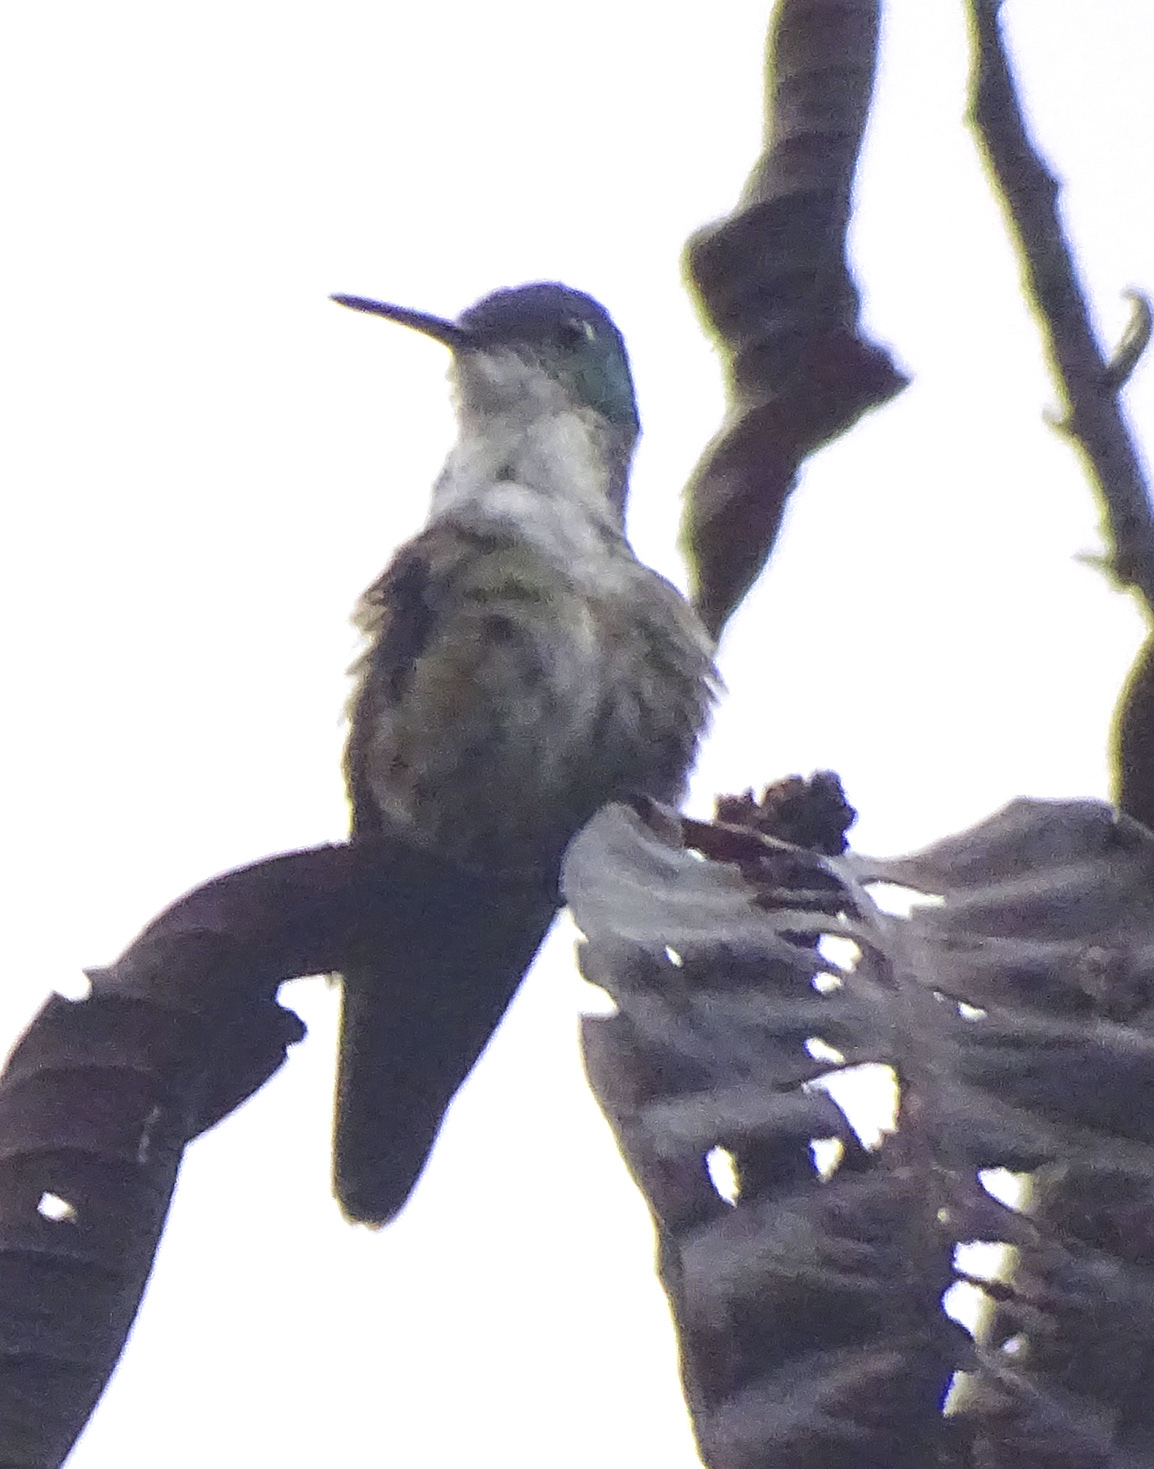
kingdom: Animalia
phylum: Chordata
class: Aves
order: Apodiformes
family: Trochilidae
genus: Saucerottia
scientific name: Saucerottia cyanocephala
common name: Azure-crowned hummingbird
